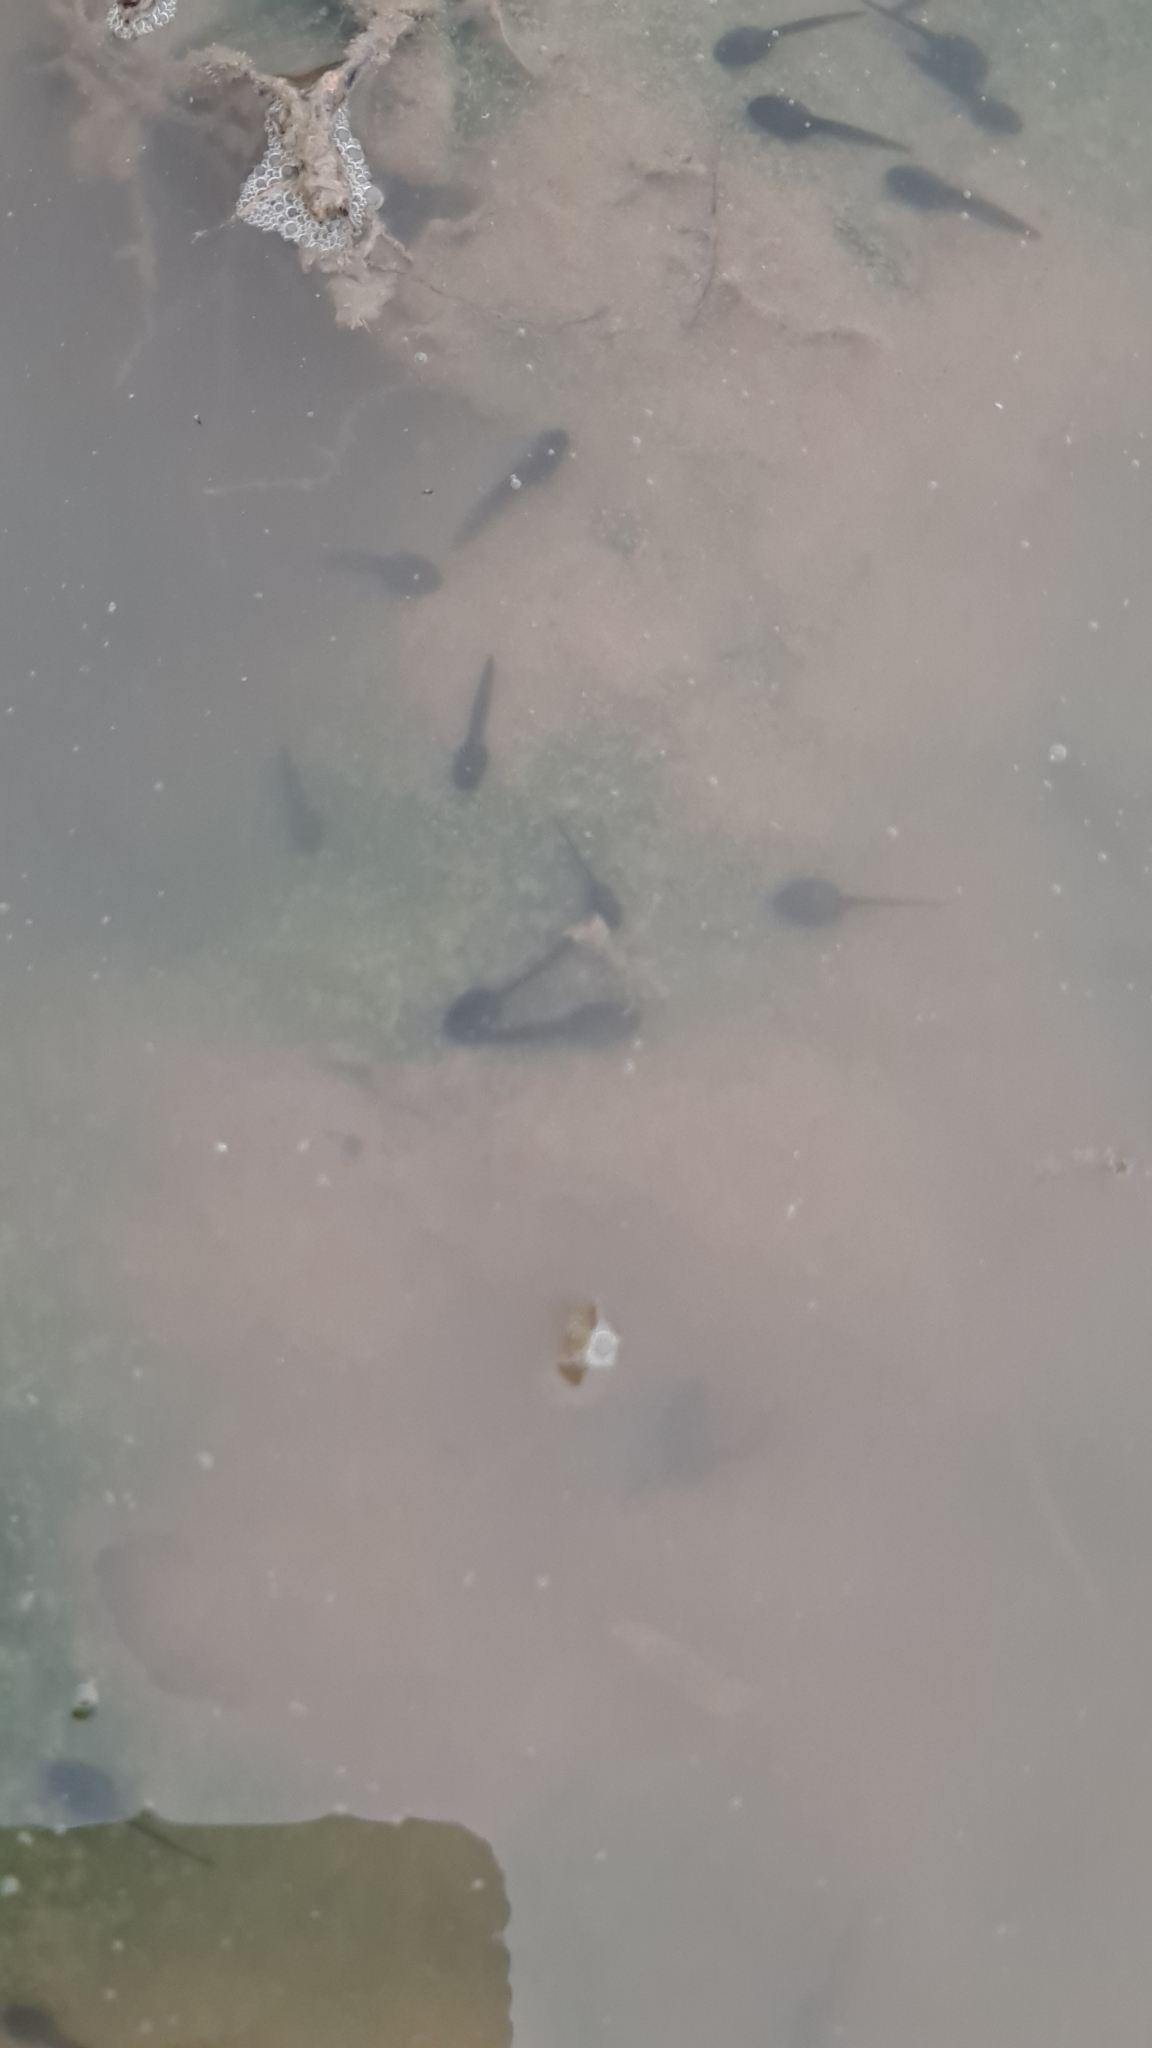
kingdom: Animalia
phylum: Chordata
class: Amphibia
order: Anura
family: Bufonidae
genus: Epidalea
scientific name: Epidalea calamita
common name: Natterjack toad
